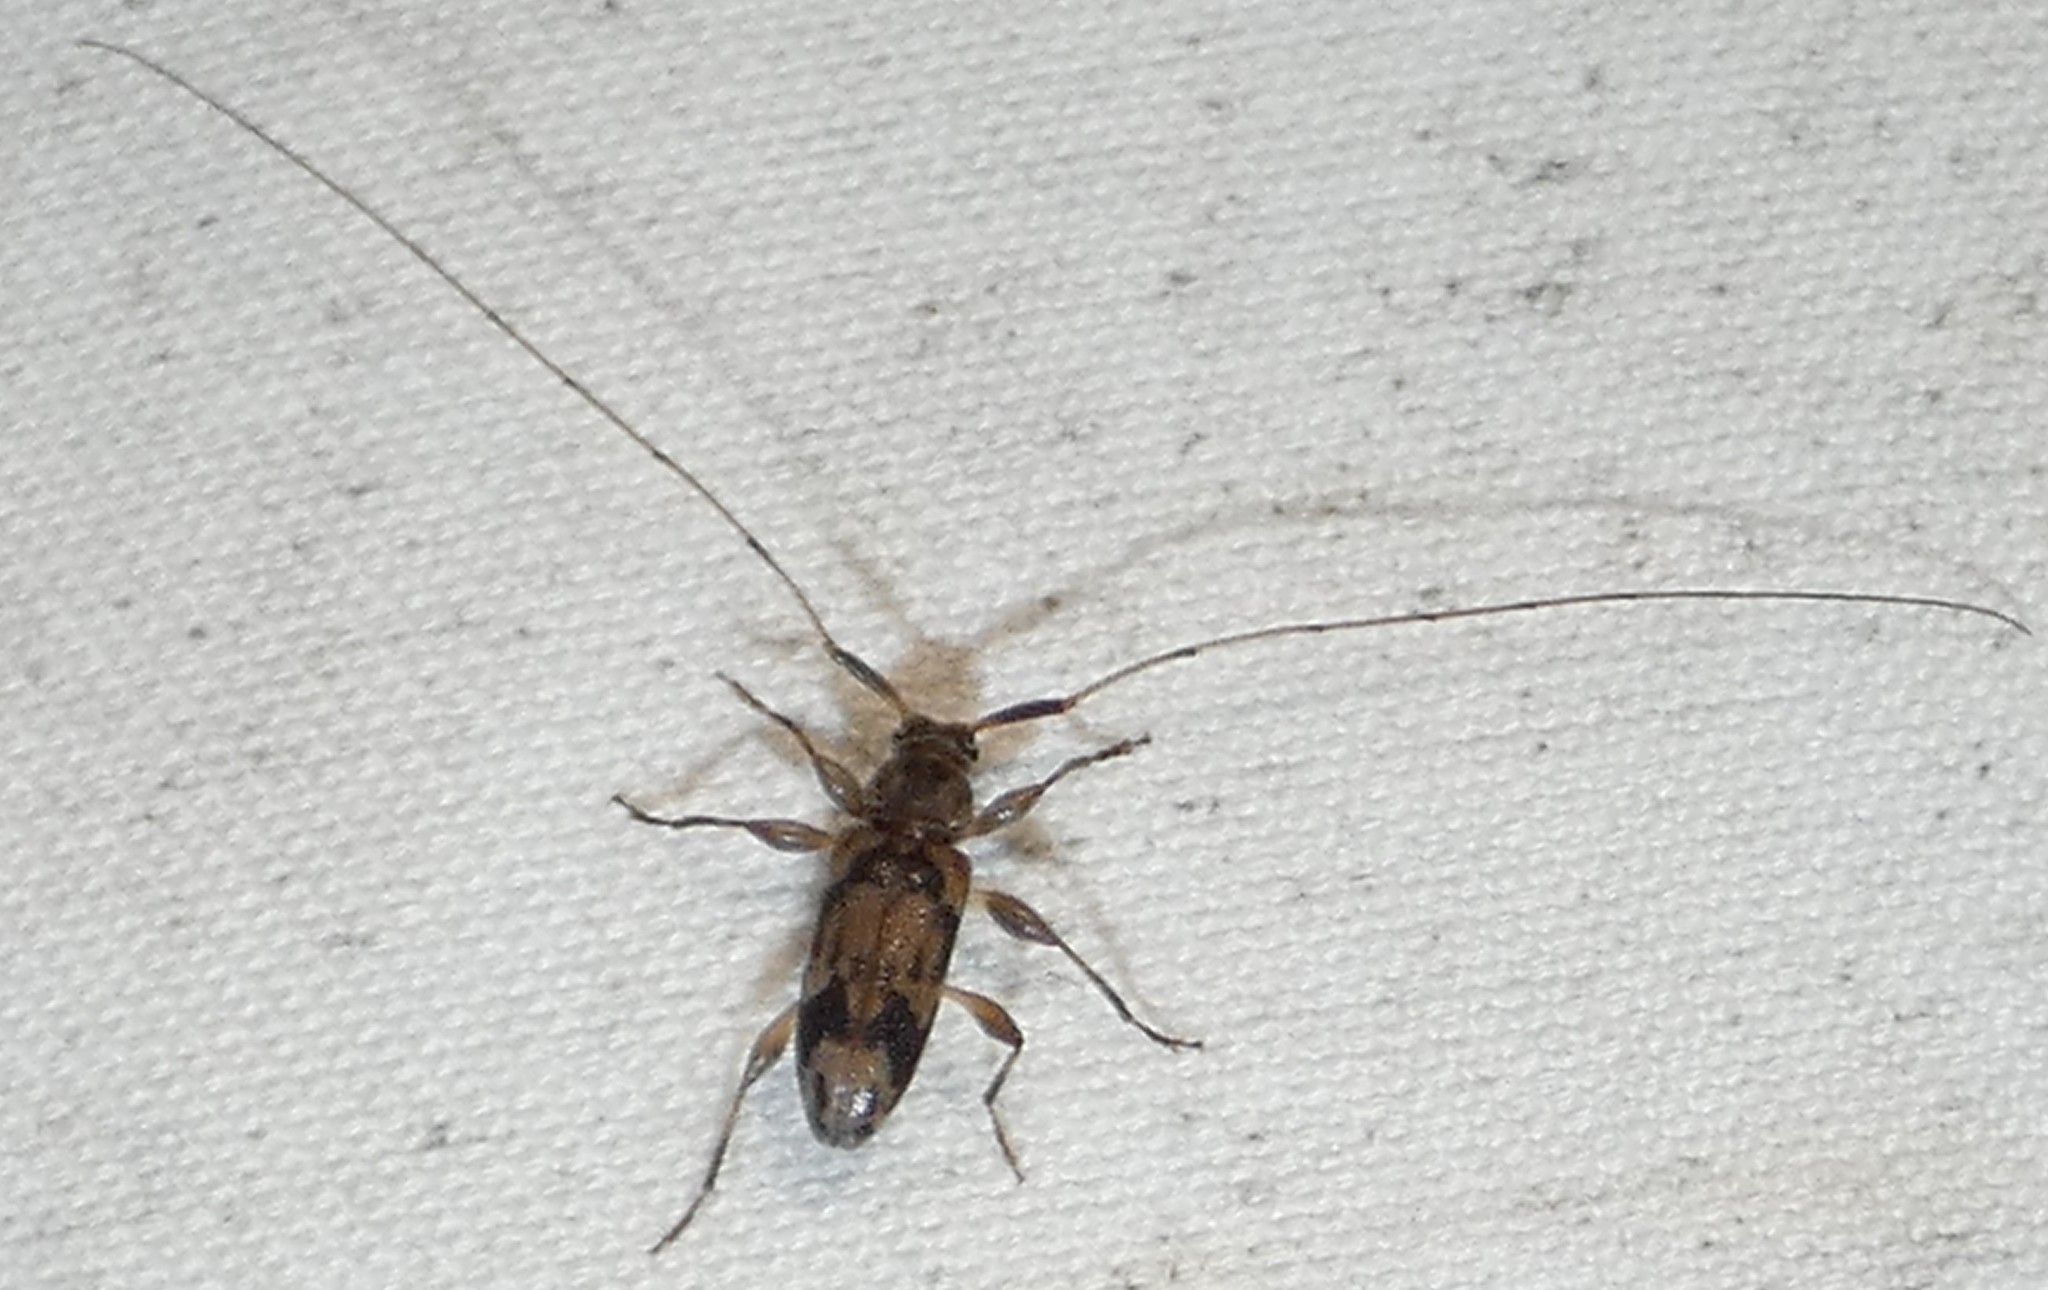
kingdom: Animalia
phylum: Arthropoda
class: Insecta
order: Coleoptera
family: Cerambycidae
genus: Urgleptes
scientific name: Urgleptes signatus
